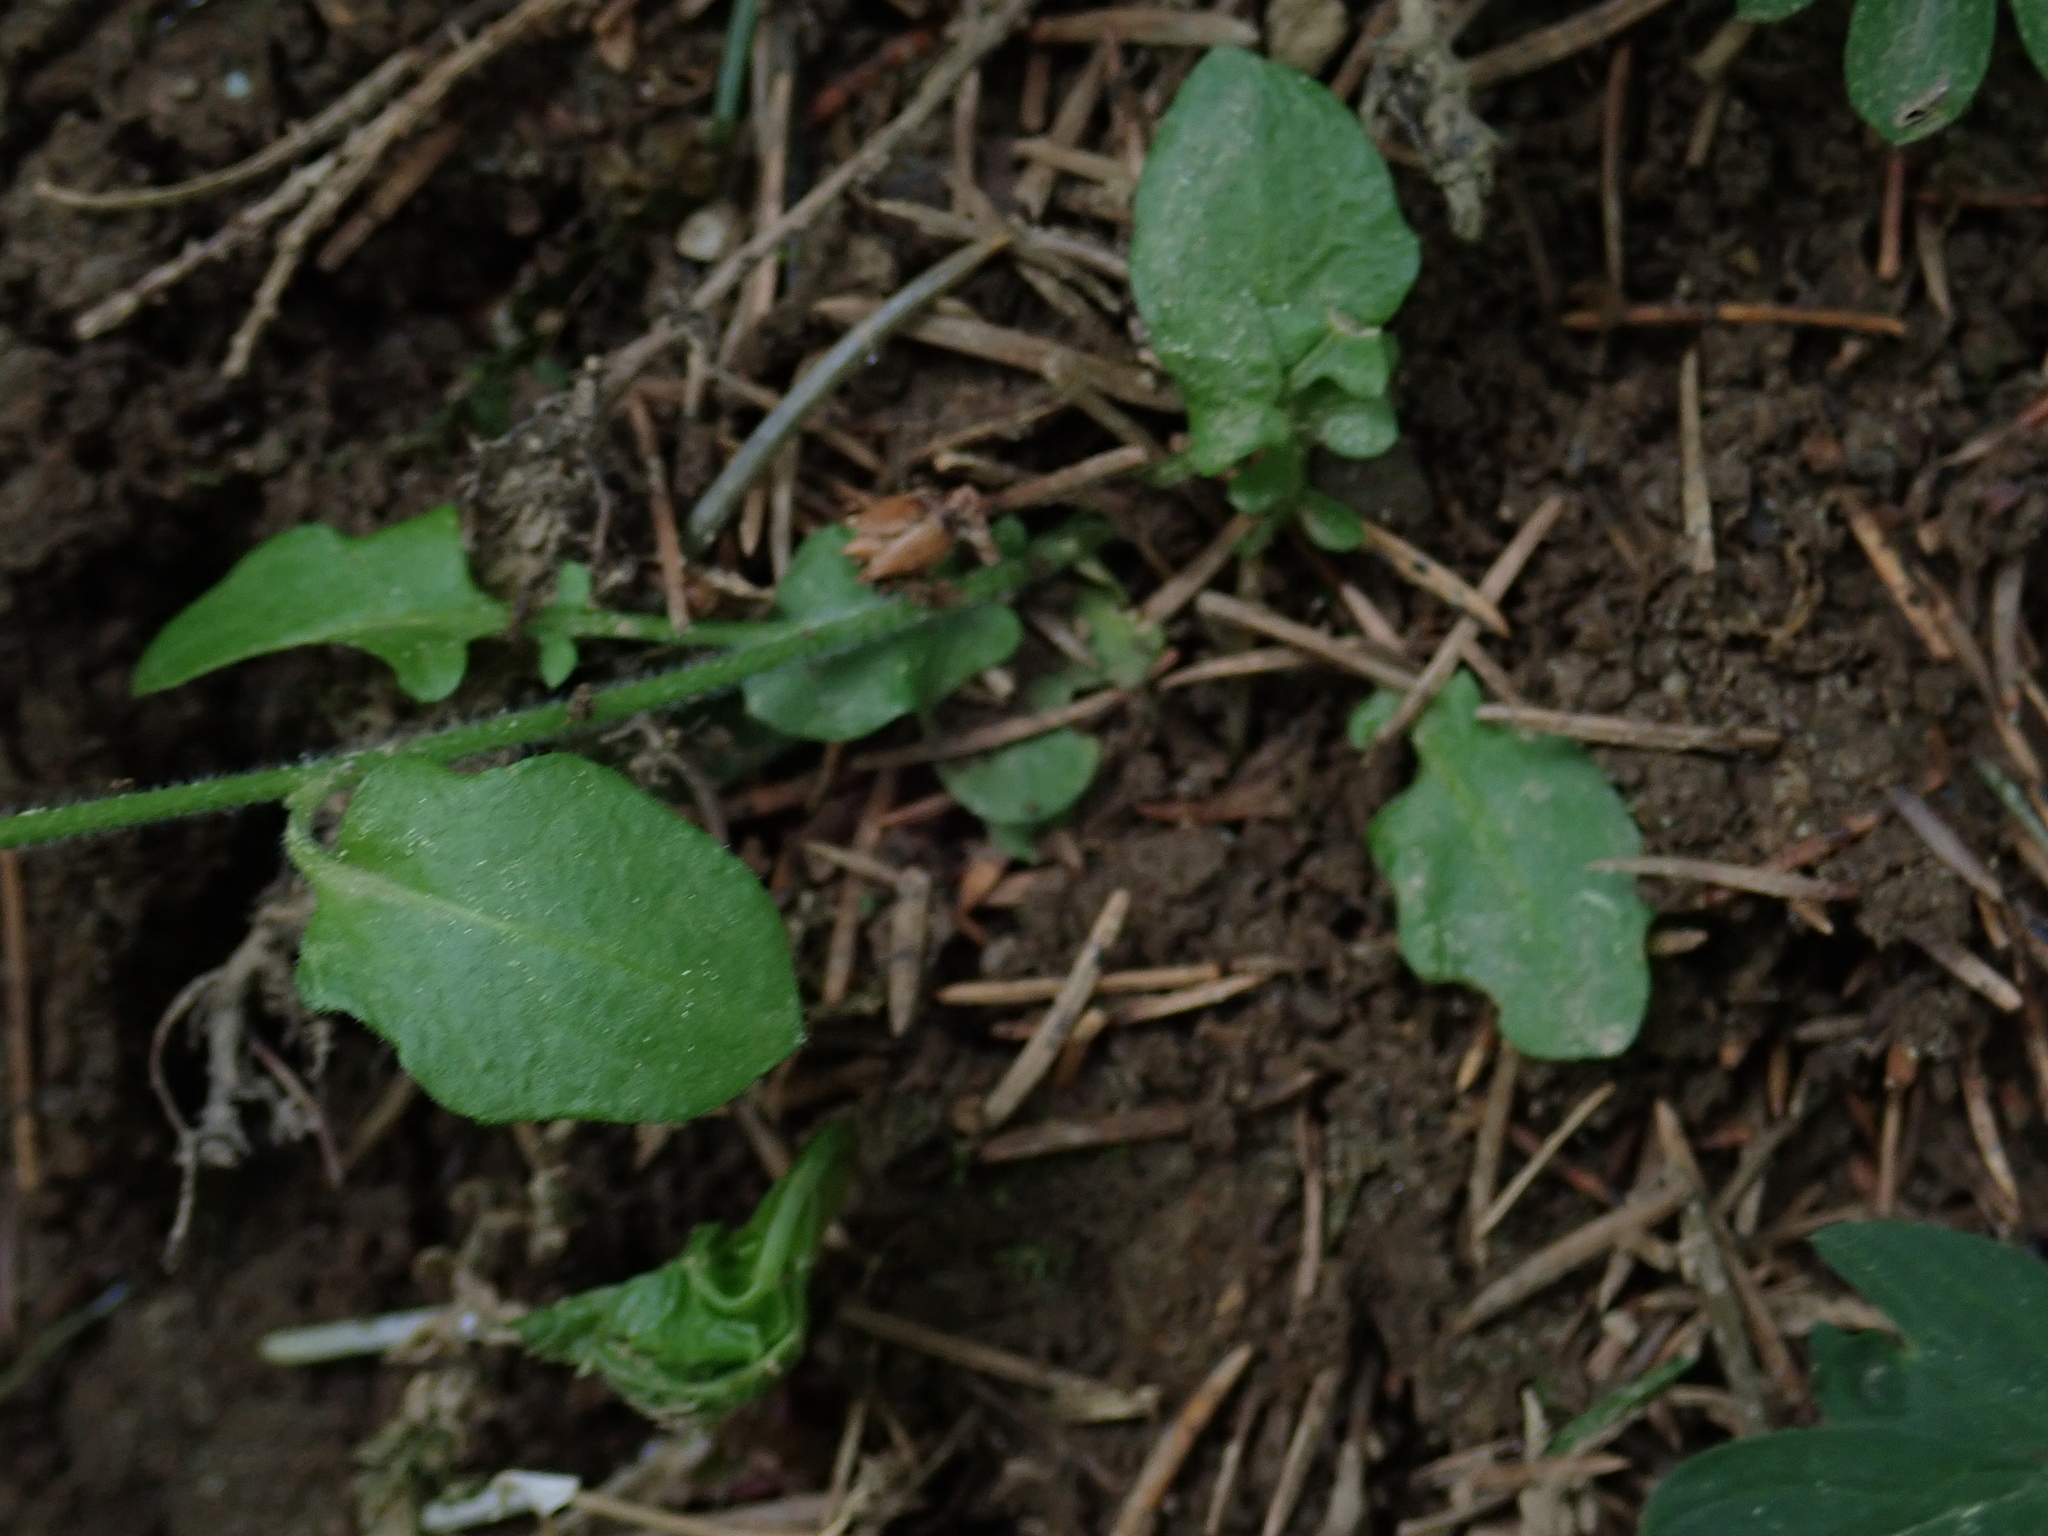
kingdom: Plantae
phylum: Tracheophyta
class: Magnoliopsida
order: Brassicales
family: Brassicaceae
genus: Arabidopsis
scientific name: Arabidopsis halleri
